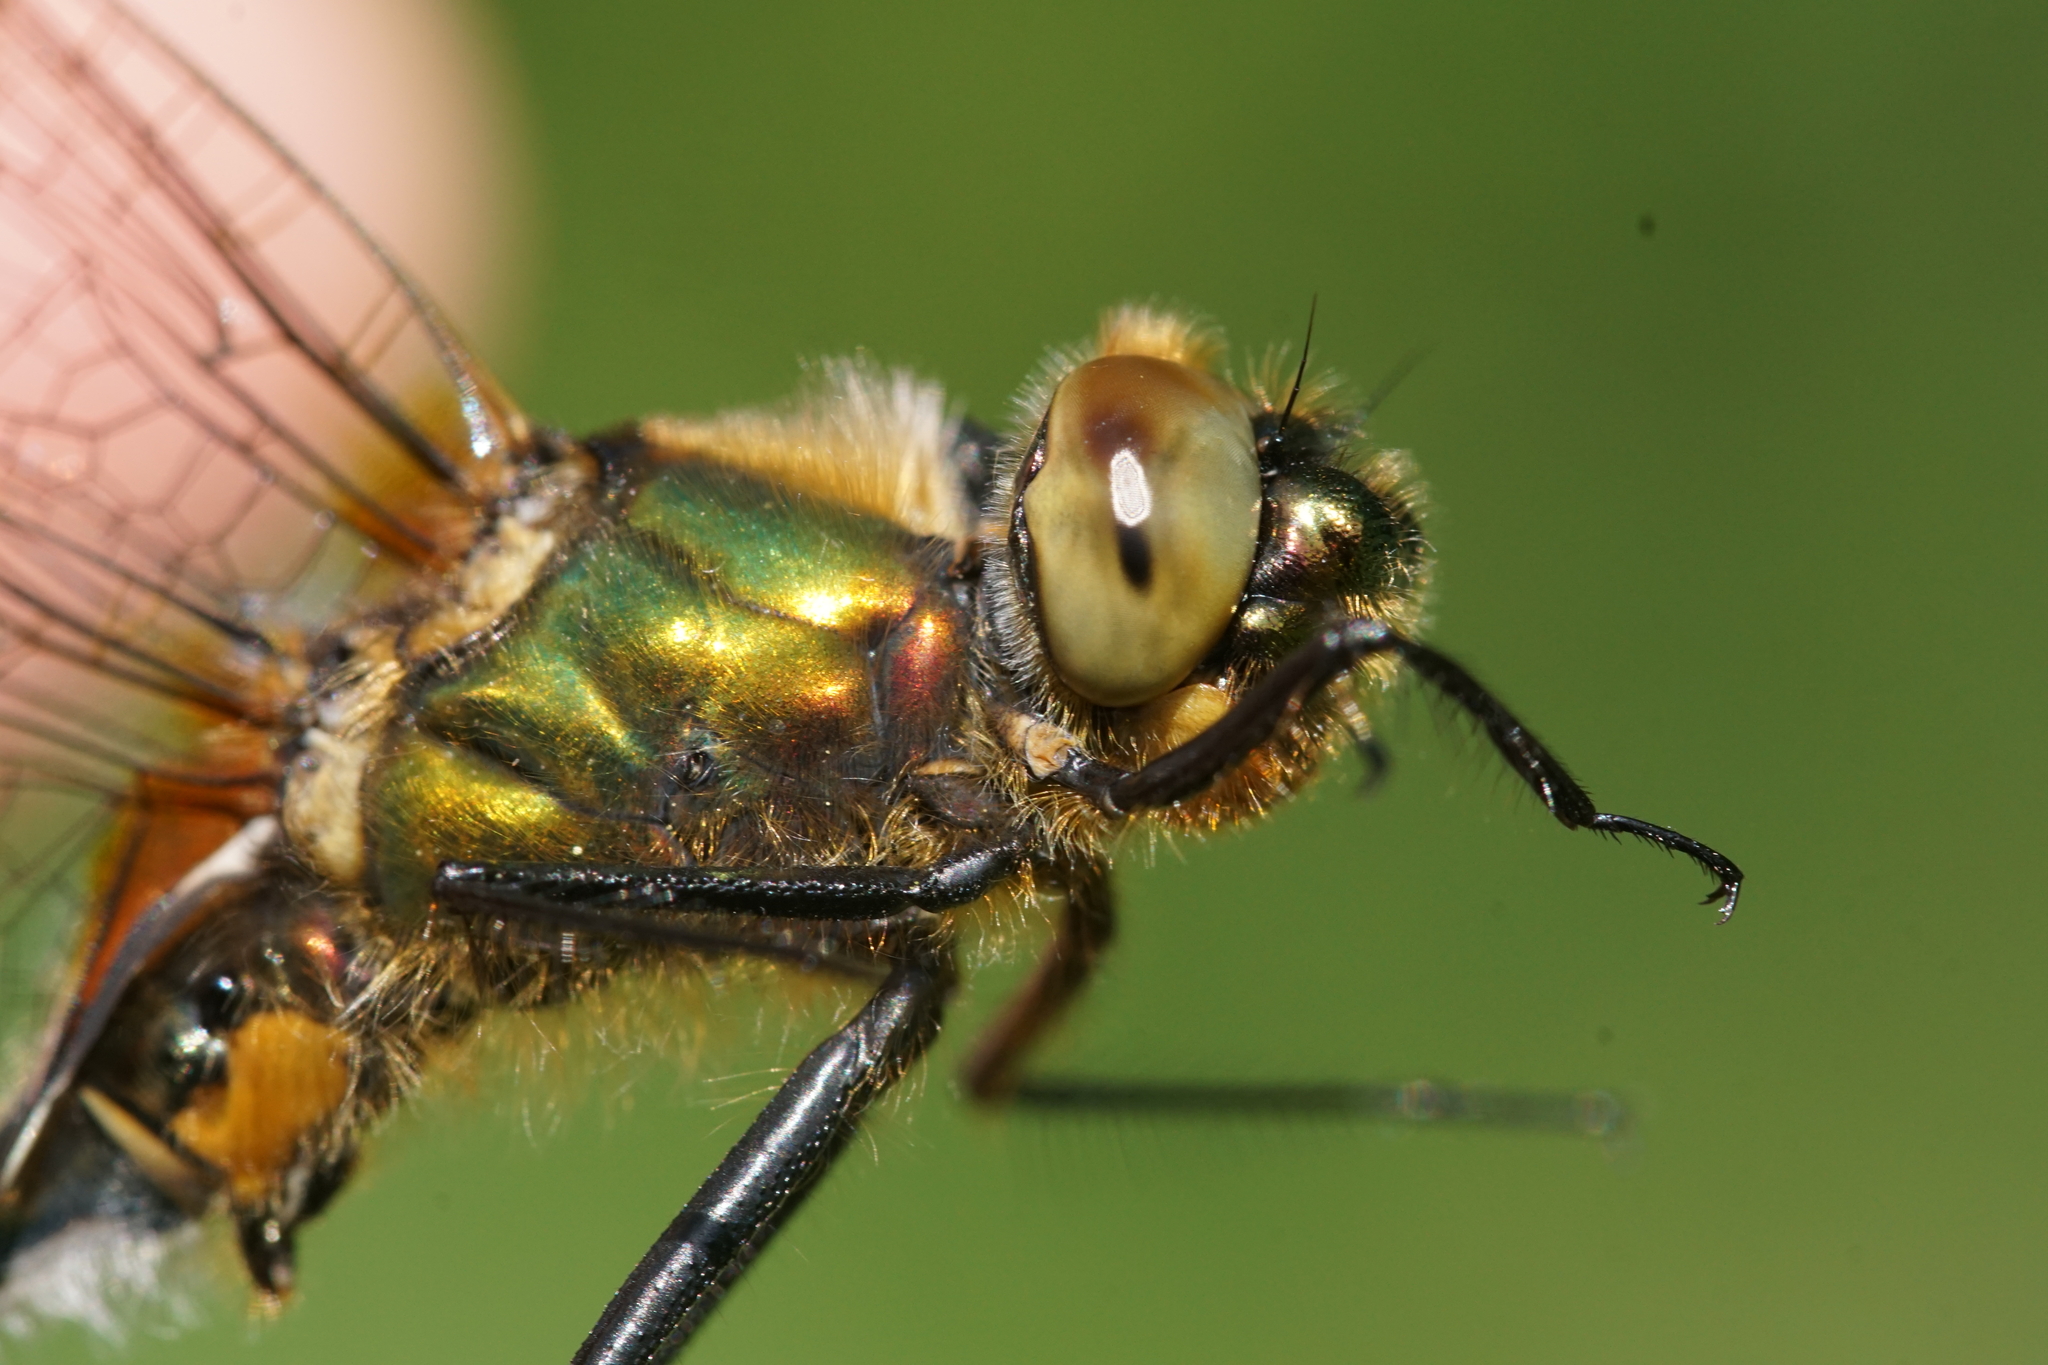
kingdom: Animalia
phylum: Arthropoda
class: Insecta
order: Odonata
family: Corduliidae
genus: Cordulia
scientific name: Cordulia aenea
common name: Downy emerald
